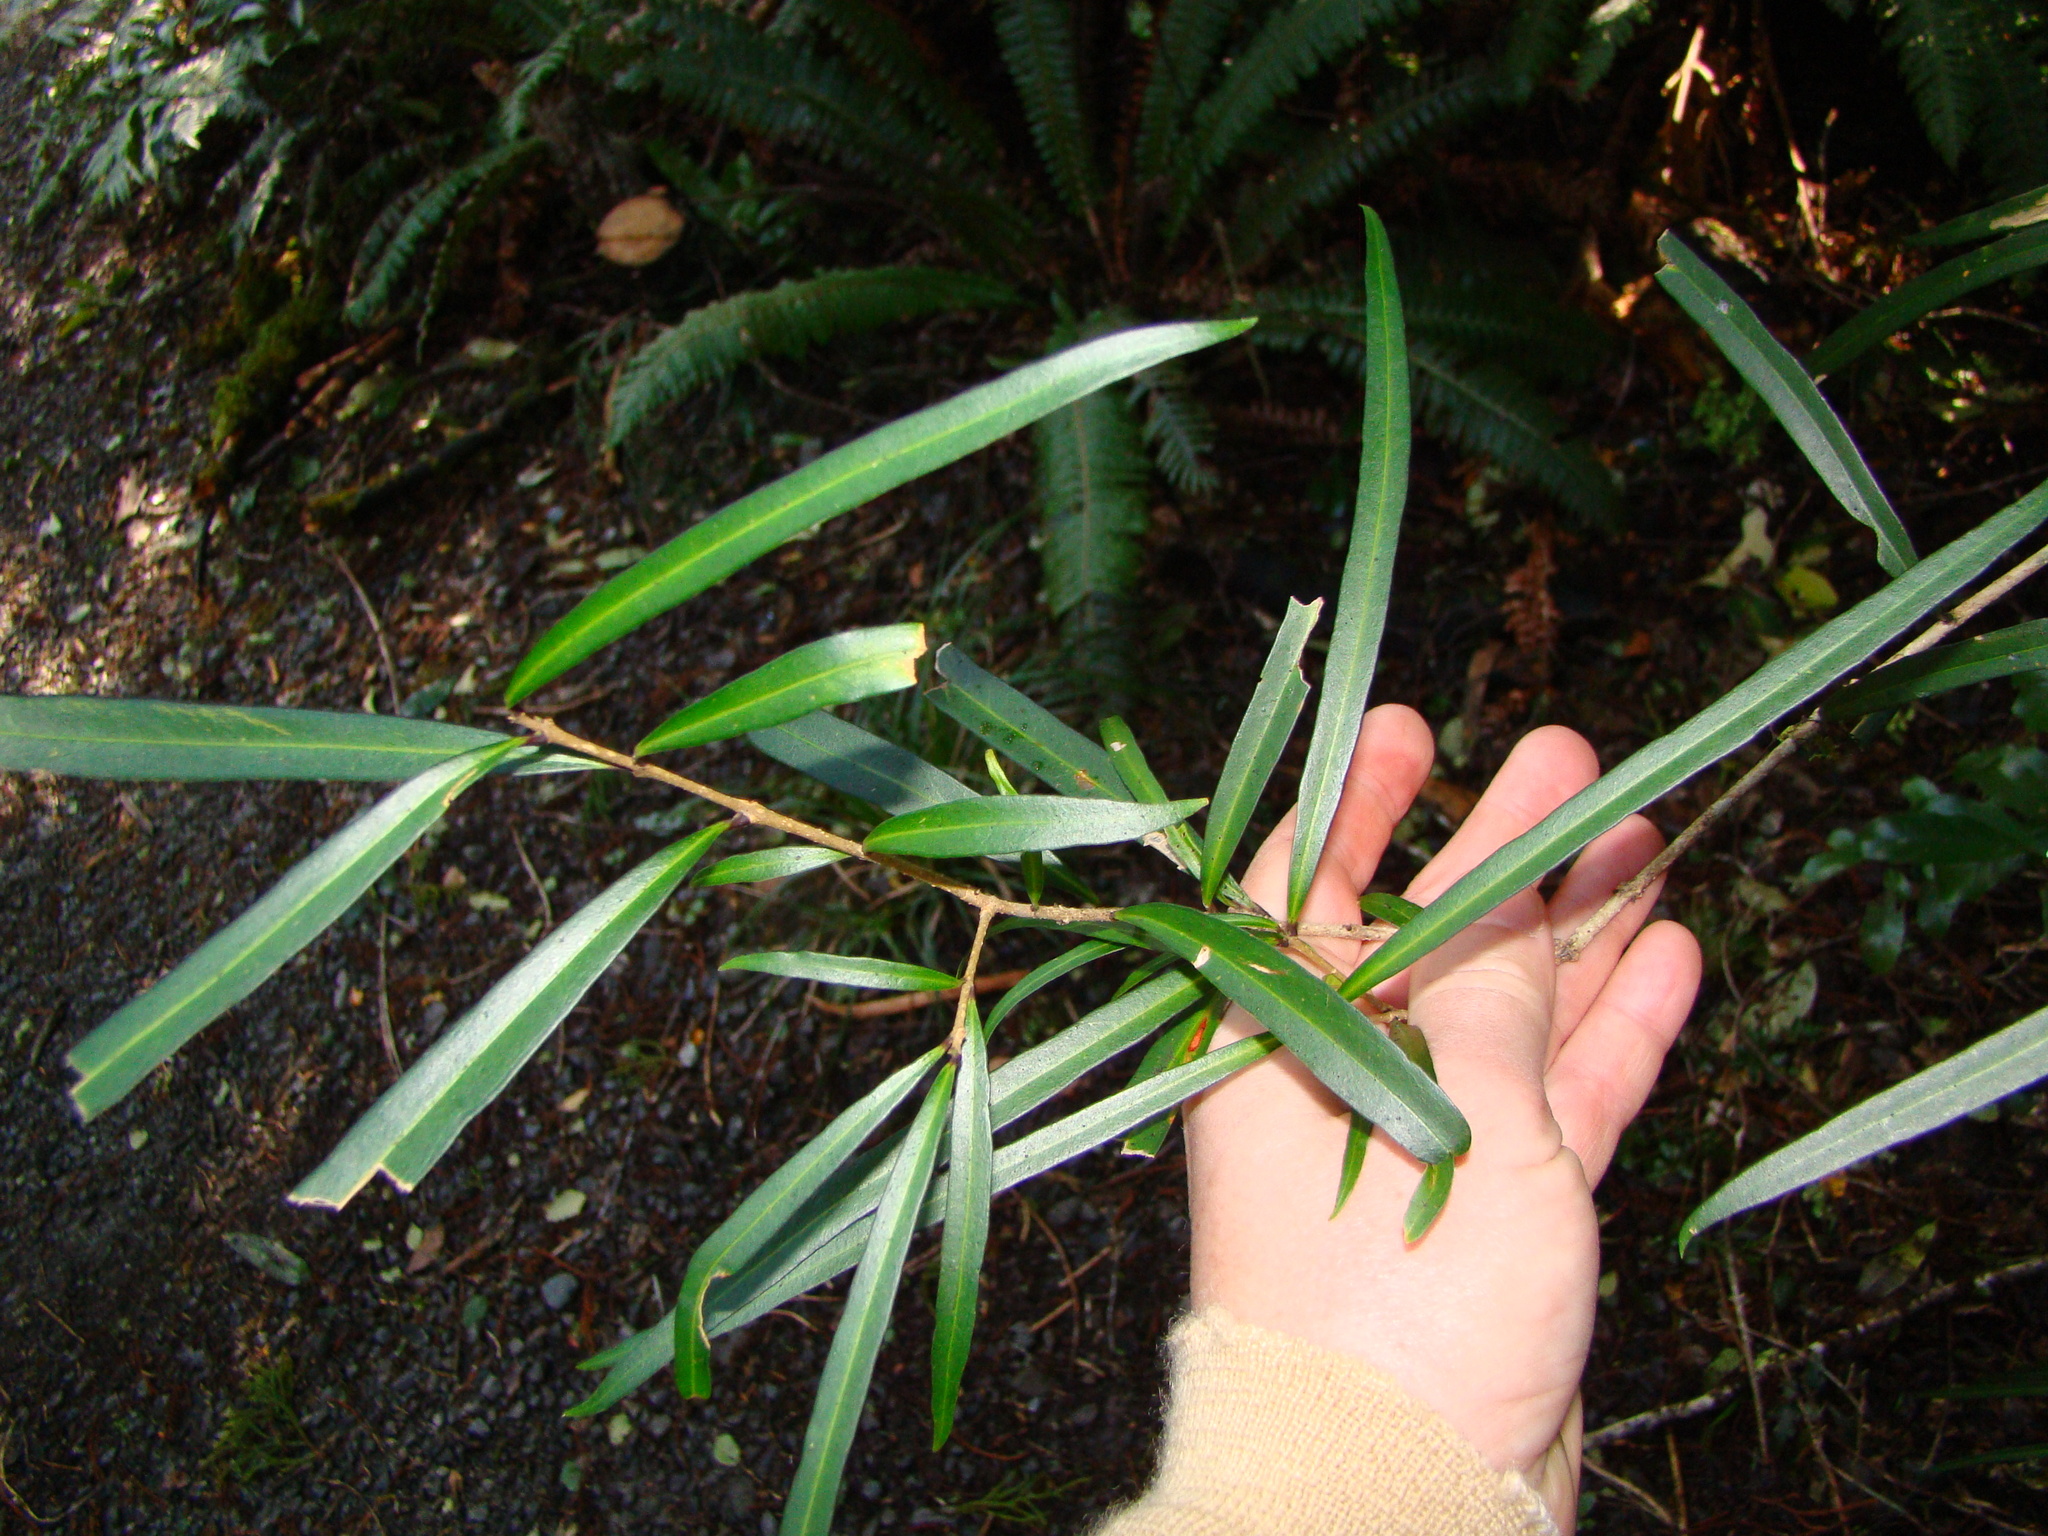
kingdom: Plantae
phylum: Tracheophyta
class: Magnoliopsida
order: Lamiales
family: Oleaceae
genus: Nestegis
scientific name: Nestegis lanceolata
